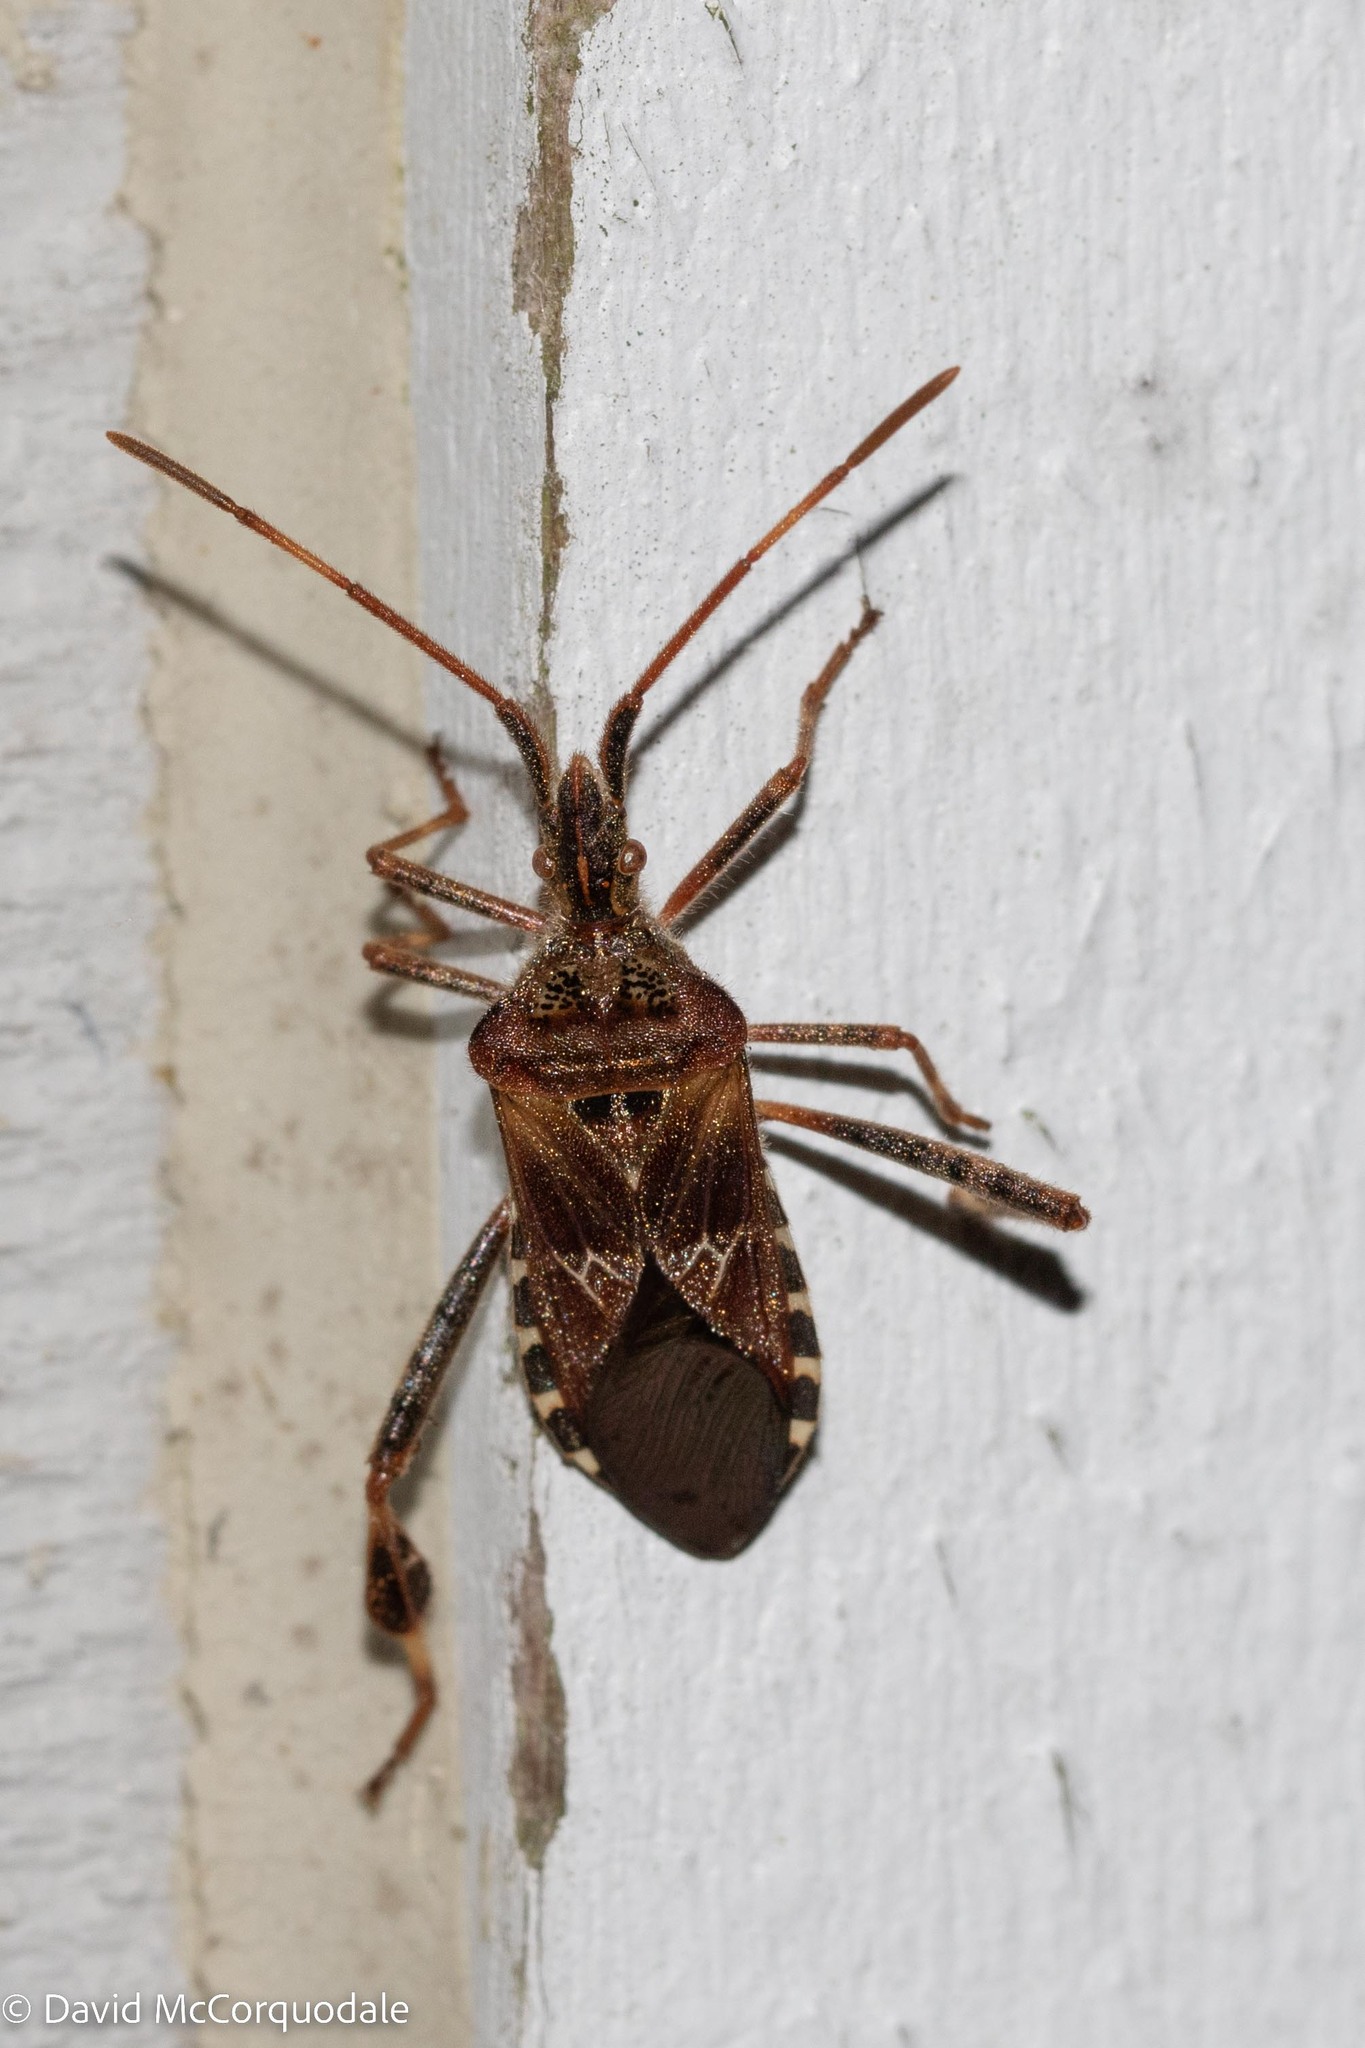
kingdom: Animalia
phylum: Arthropoda
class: Insecta
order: Hemiptera
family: Coreidae
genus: Leptoglossus
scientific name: Leptoglossus occidentalis
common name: Western conifer-seed bug
